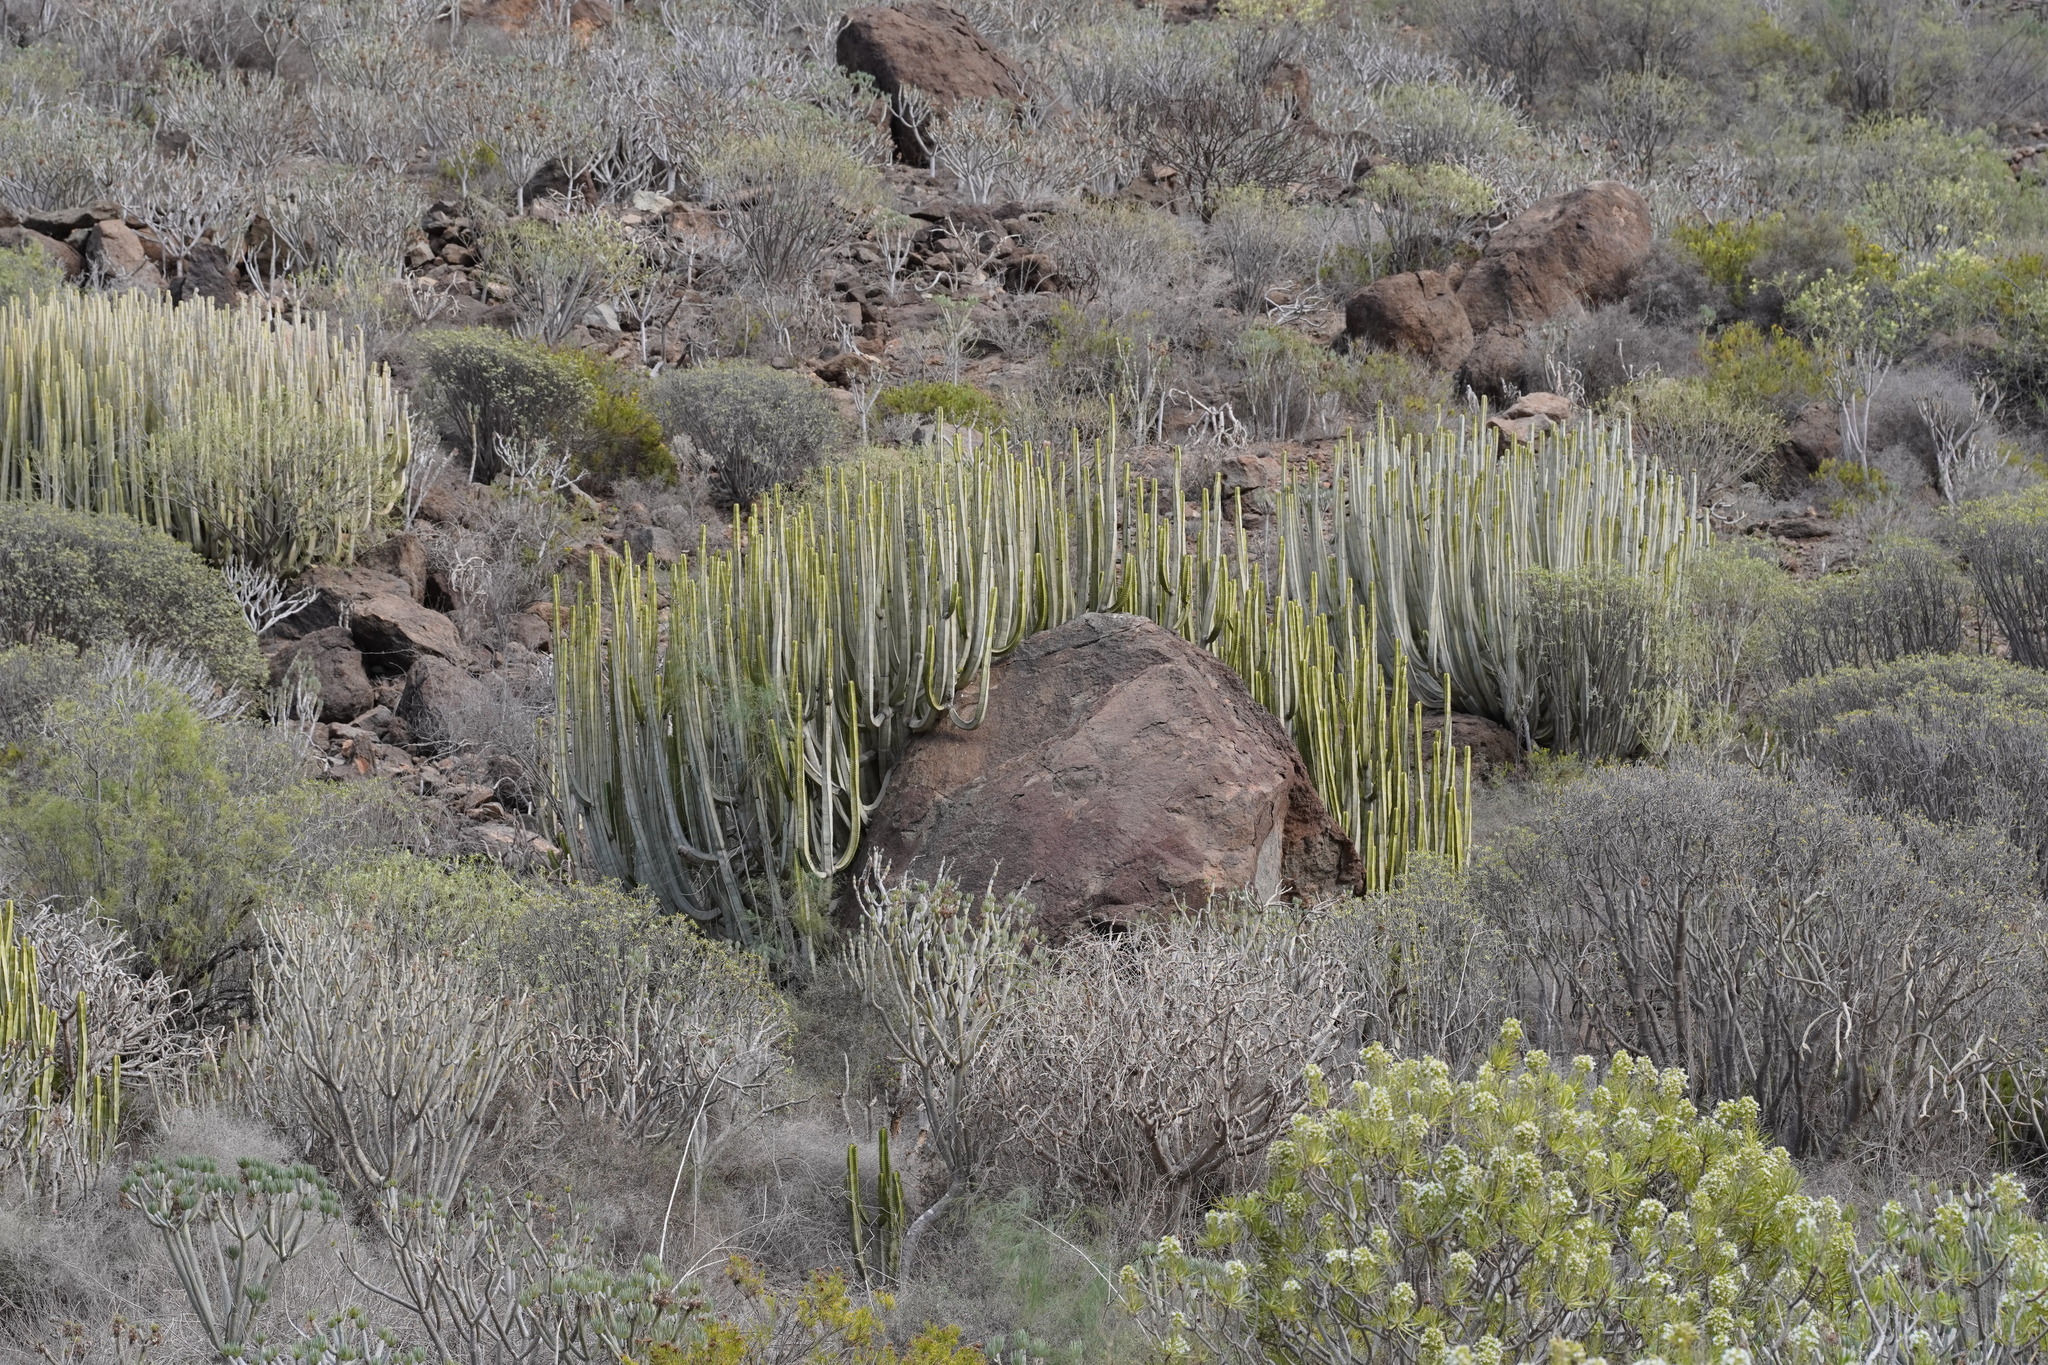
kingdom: Plantae
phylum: Tracheophyta
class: Magnoliopsida
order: Malpighiales
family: Euphorbiaceae
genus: Euphorbia
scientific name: Euphorbia canariensis
